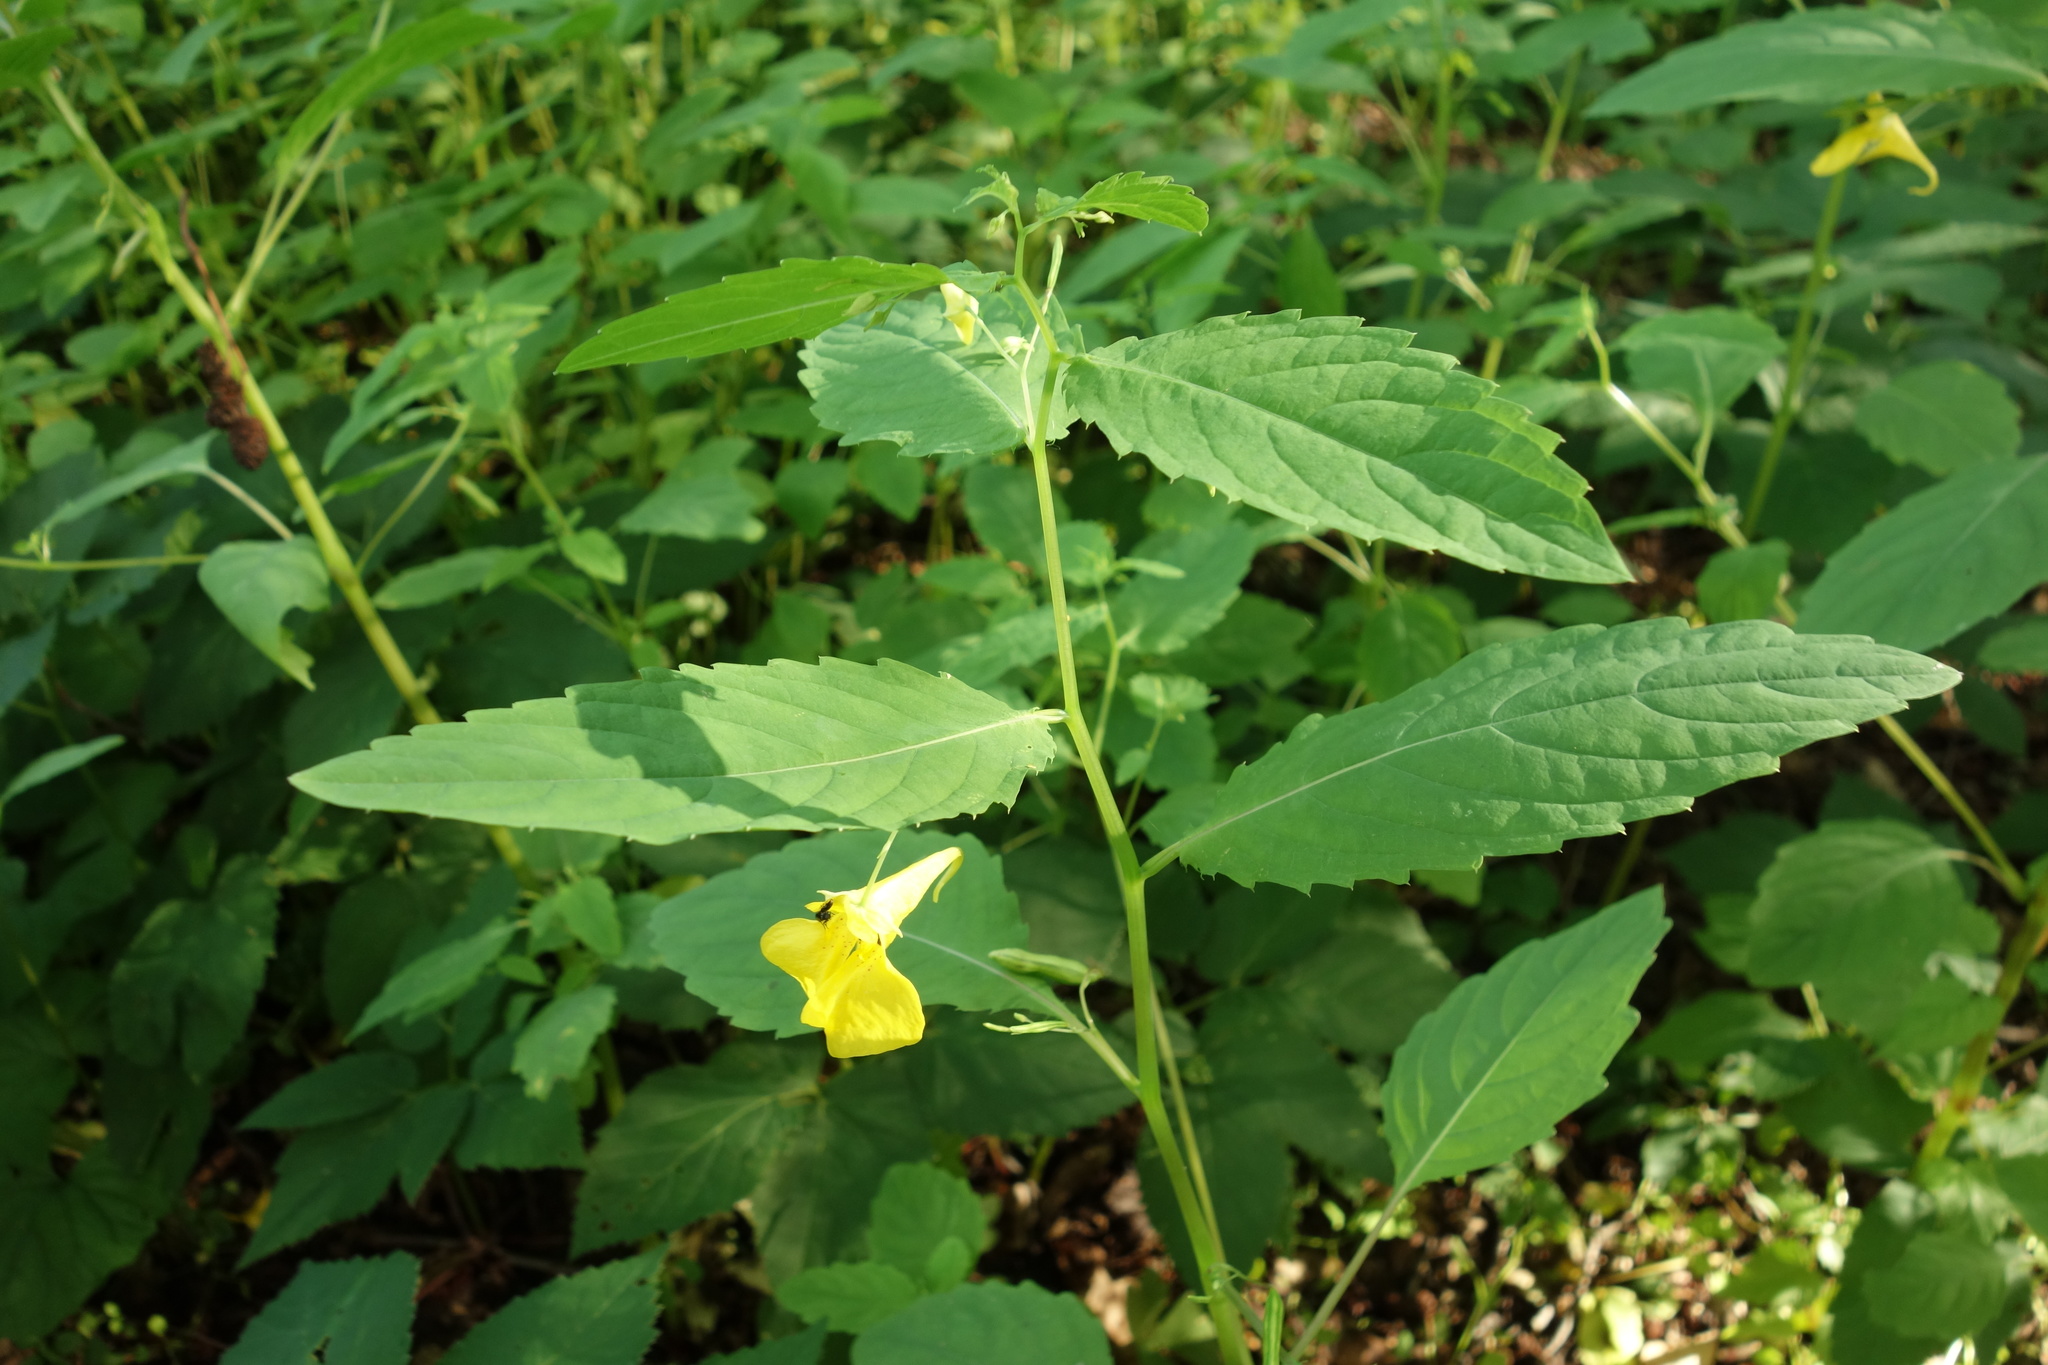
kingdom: Plantae
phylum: Tracheophyta
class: Magnoliopsida
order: Ericales
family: Balsaminaceae
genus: Impatiens
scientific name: Impatiens noli-tangere
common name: Touch-me-not balsam
